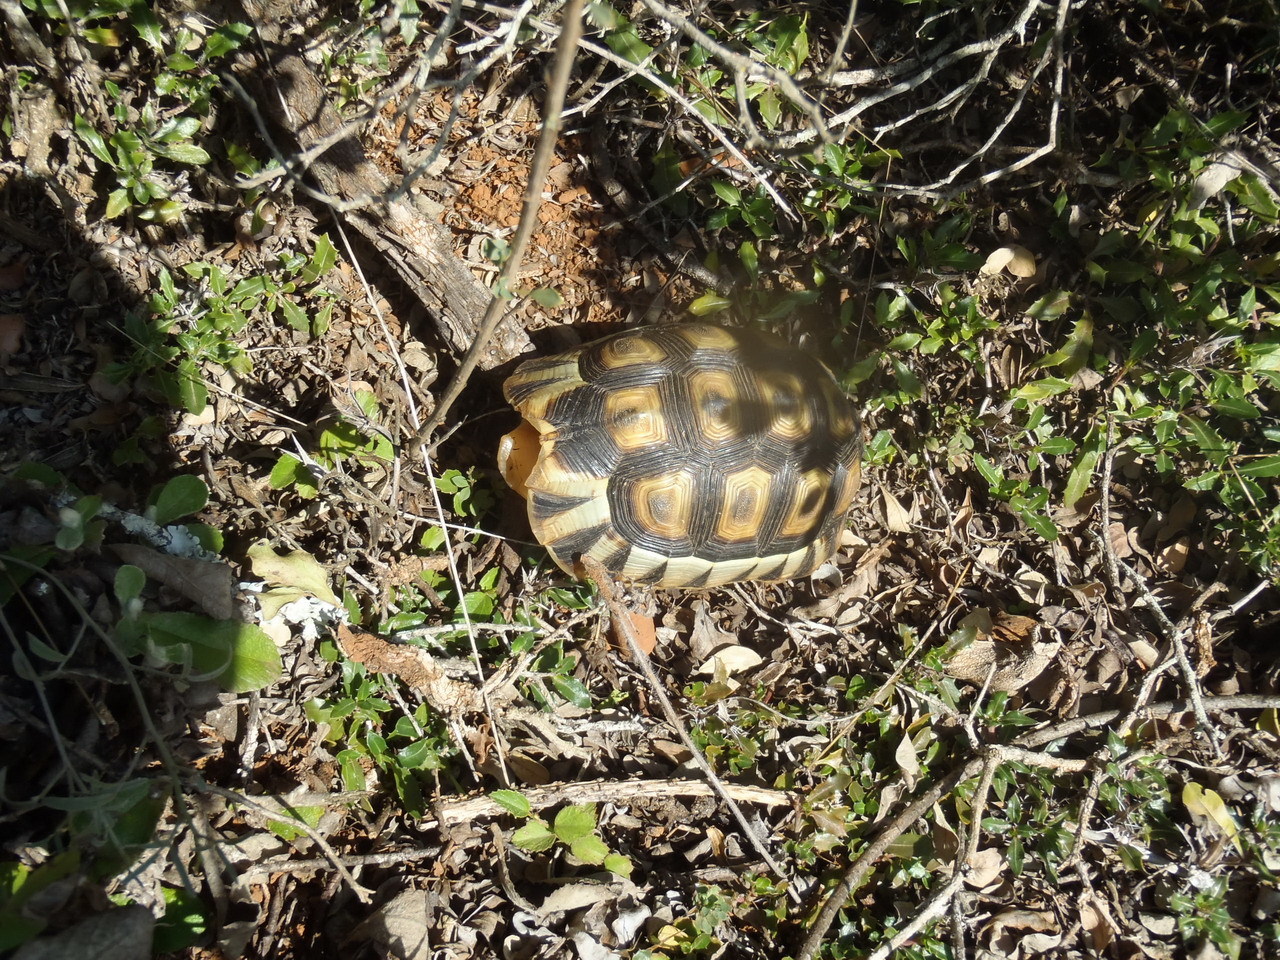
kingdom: Animalia
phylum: Chordata
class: Testudines
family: Testudinidae
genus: Chersina
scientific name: Chersina angulata
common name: South african bowsprit tortoise
